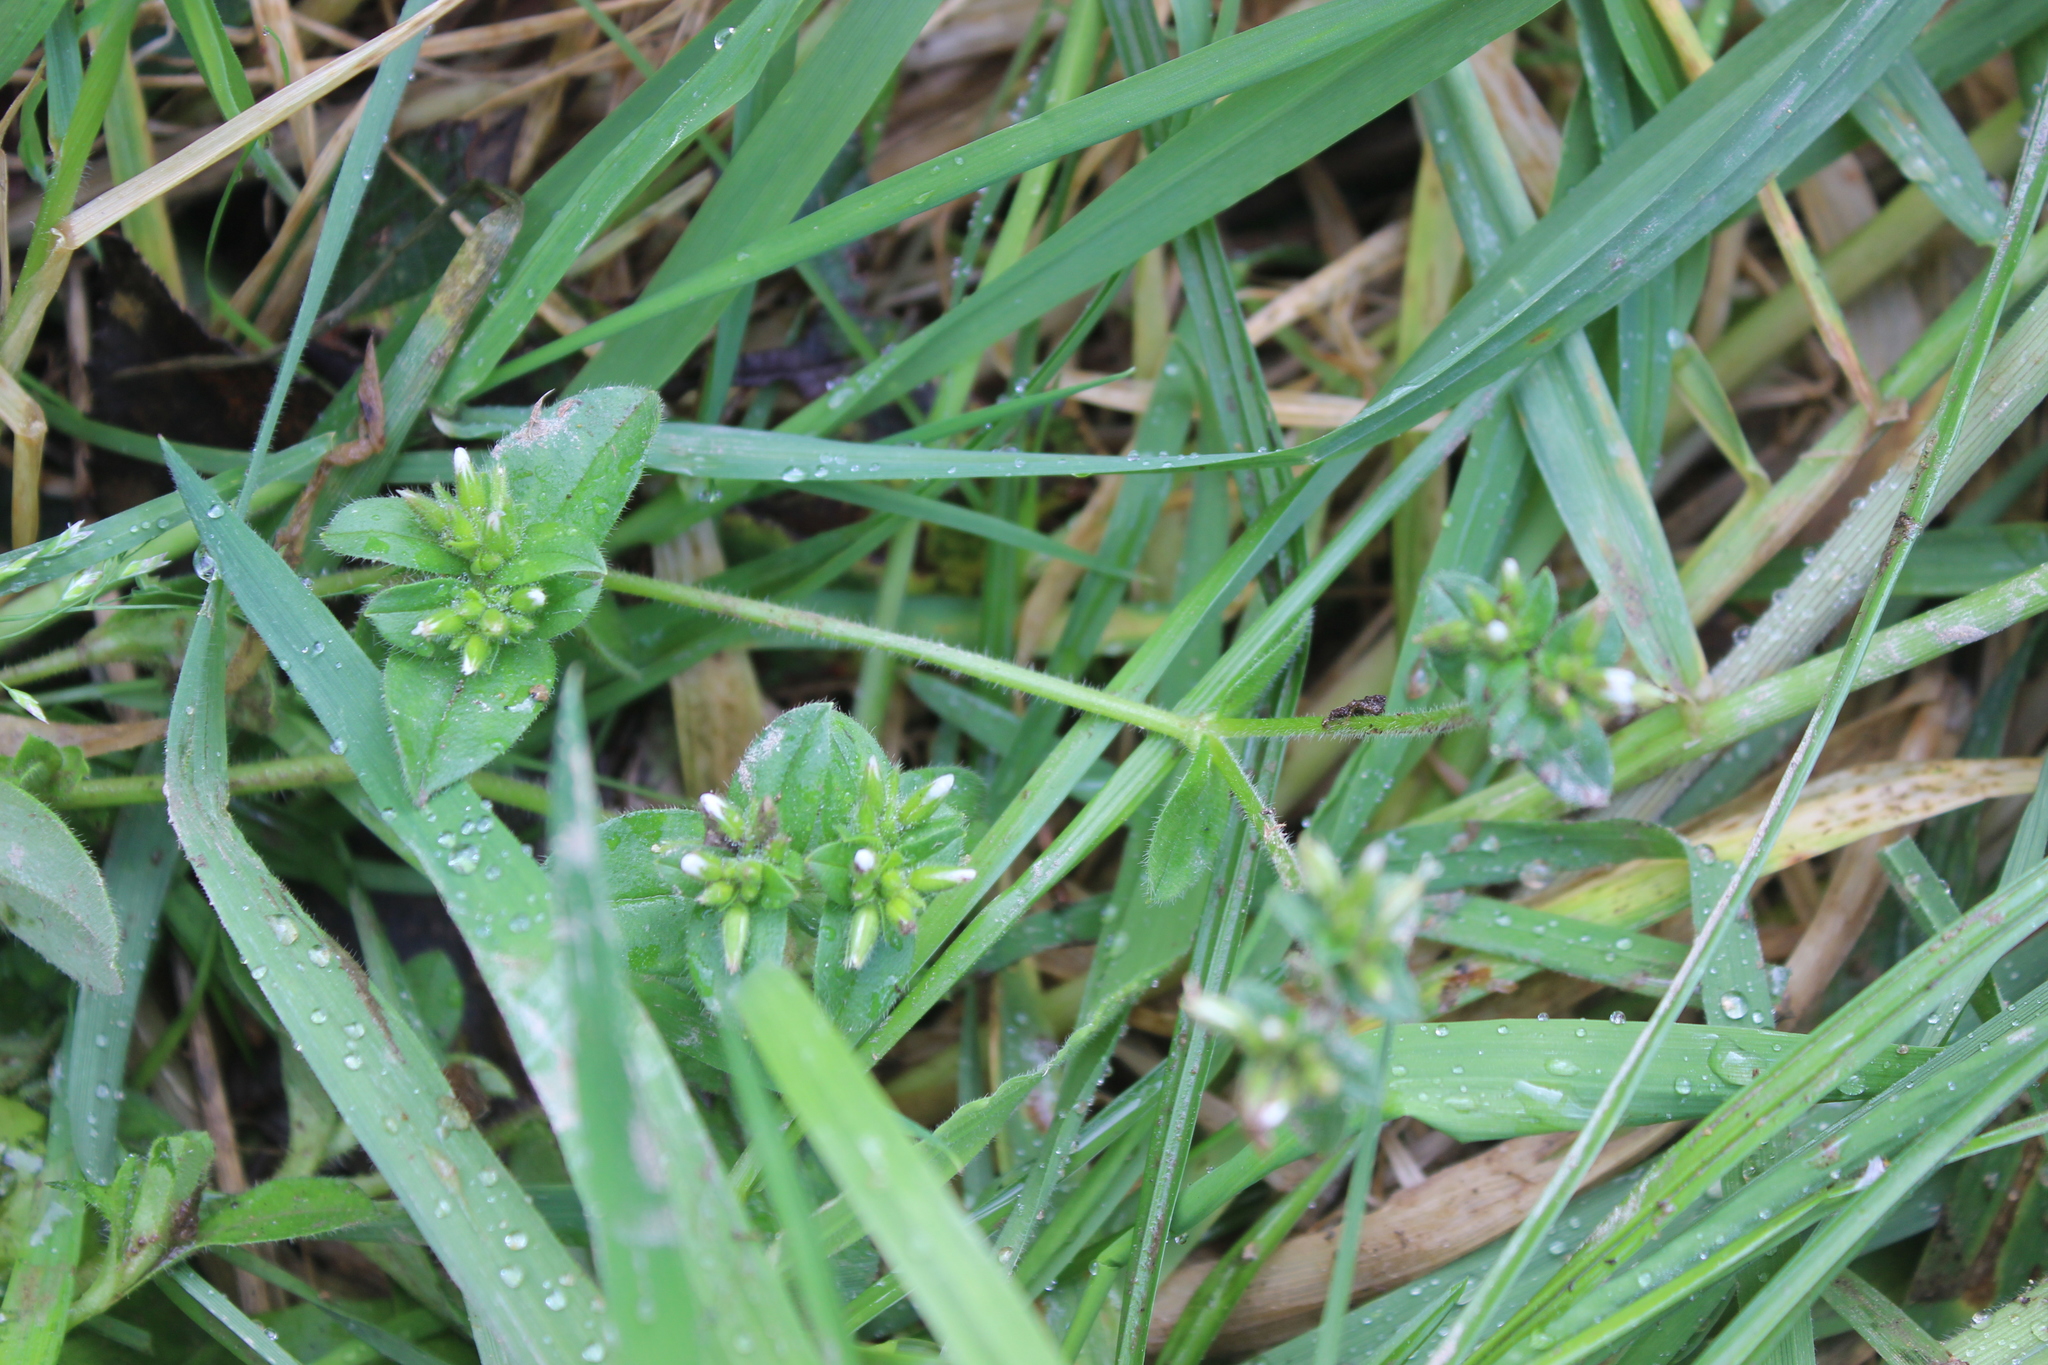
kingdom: Plantae
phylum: Tracheophyta
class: Magnoliopsida
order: Caryophyllales
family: Caryophyllaceae
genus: Cerastium
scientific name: Cerastium glomeratum
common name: Sticky chickweed
